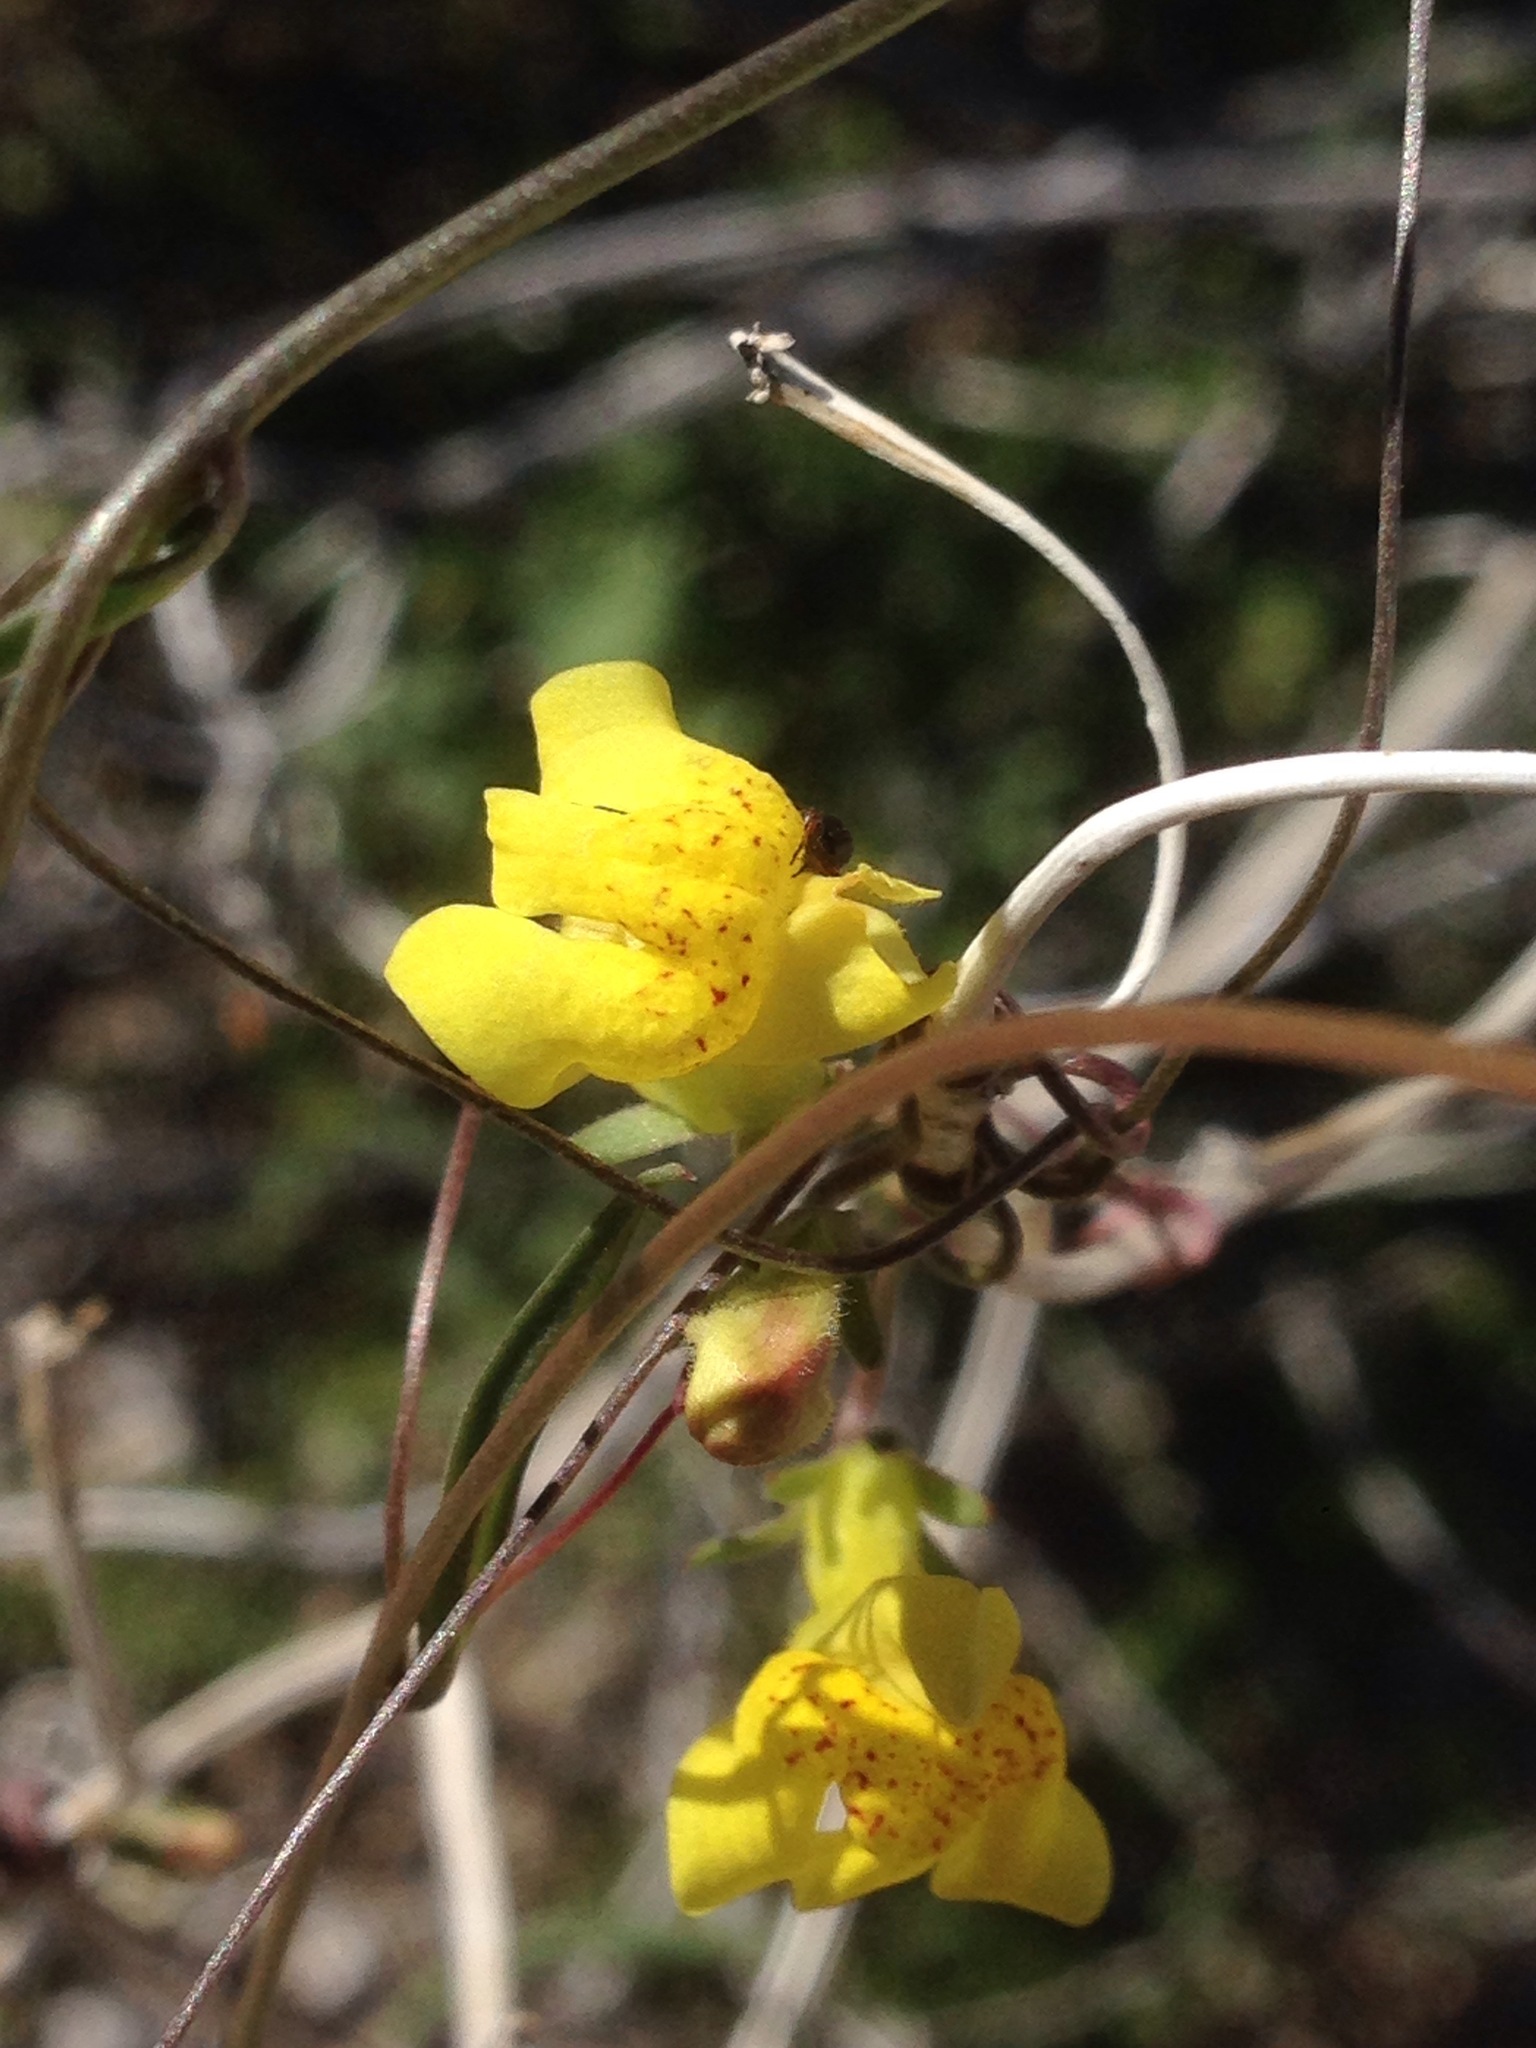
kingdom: Plantae
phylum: Tracheophyta
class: Magnoliopsida
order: Lamiales
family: Plantaginaceae
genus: Neogaerrhinum
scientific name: Neogaerrhinum filipes
